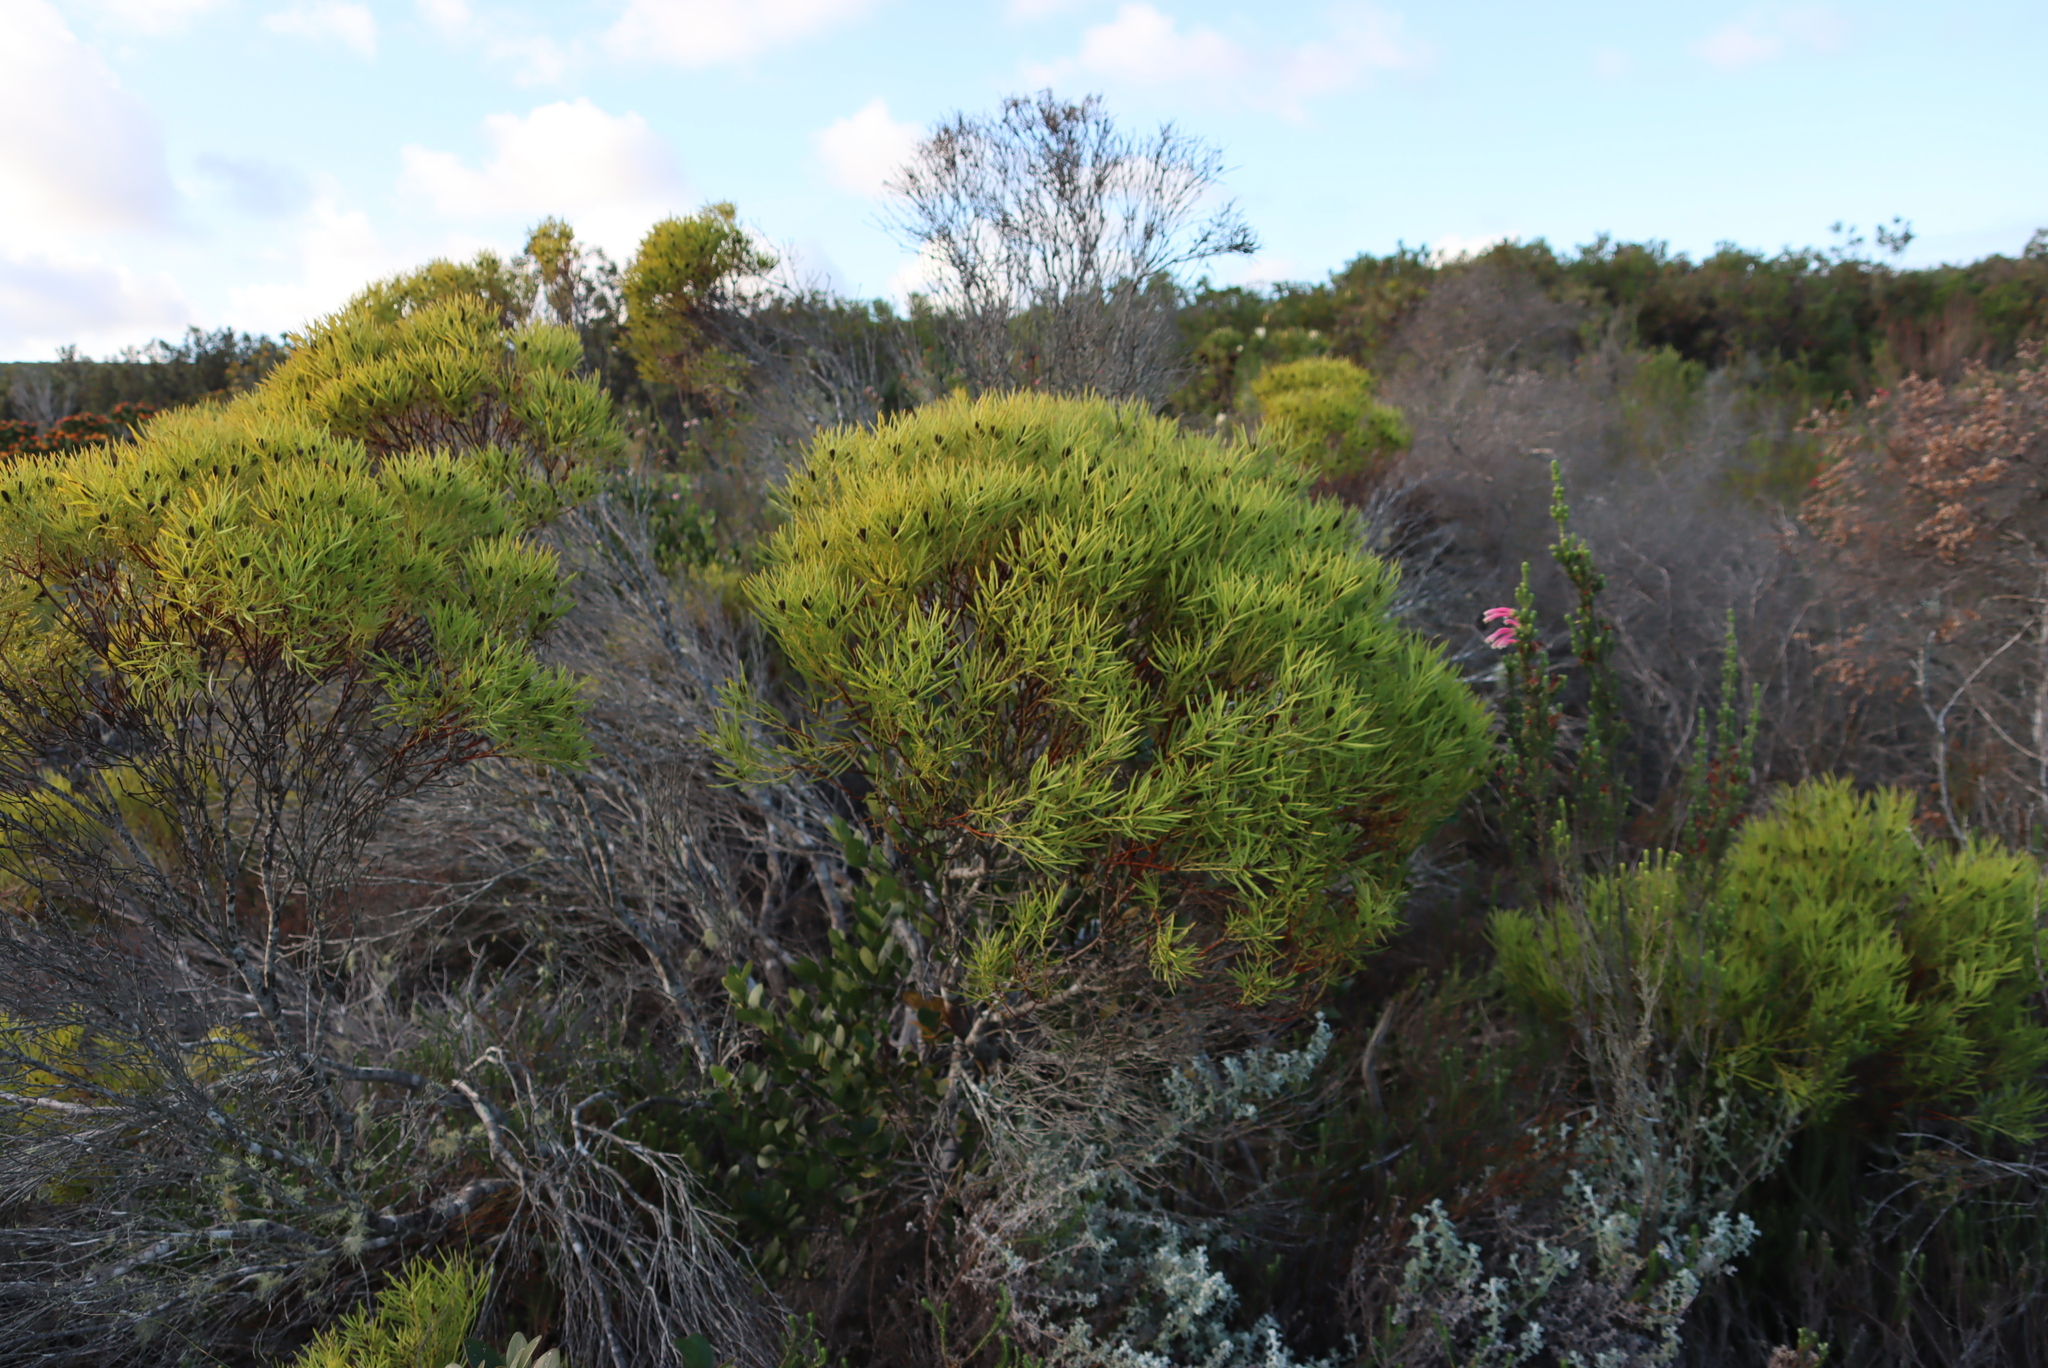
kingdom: Plantae
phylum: Tracheophyta
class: Magnoliopsida
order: Proteales
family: Proteaceae
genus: Leucadendron
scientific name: Leucadendron salignum
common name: Common sunshine conebush
